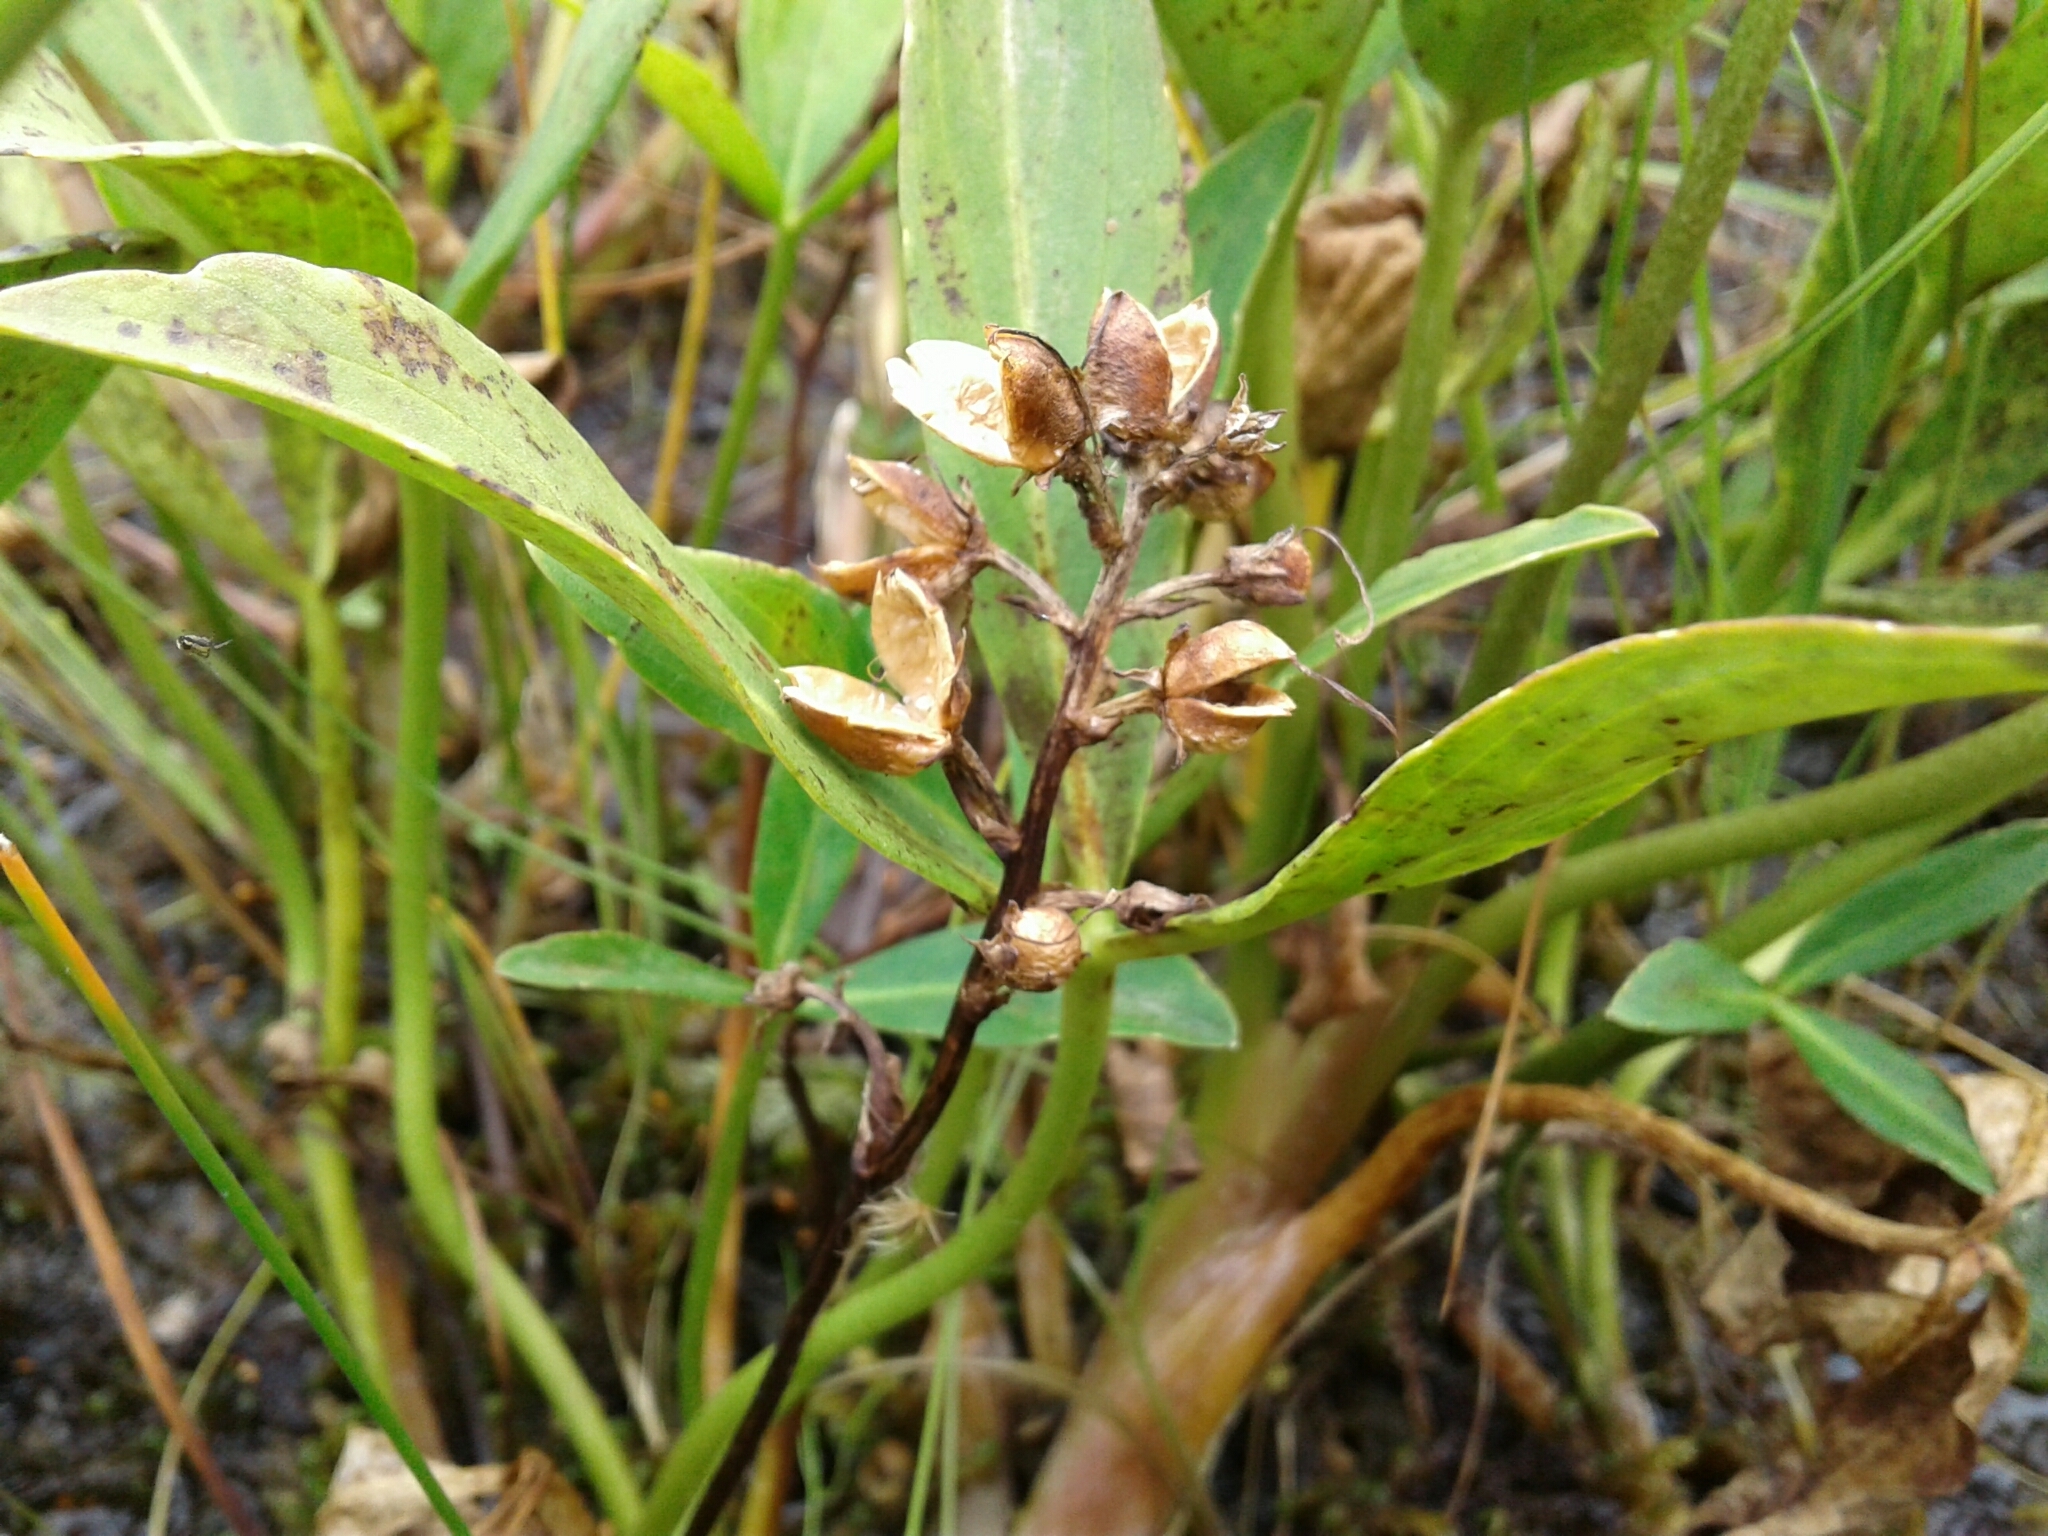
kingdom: Plantae
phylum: Tracheophyta
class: Magnoliopsida
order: Asterales
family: Menyanthaceae
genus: Menyanthes
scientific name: Menyanthes trifoliata
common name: Bogbean
